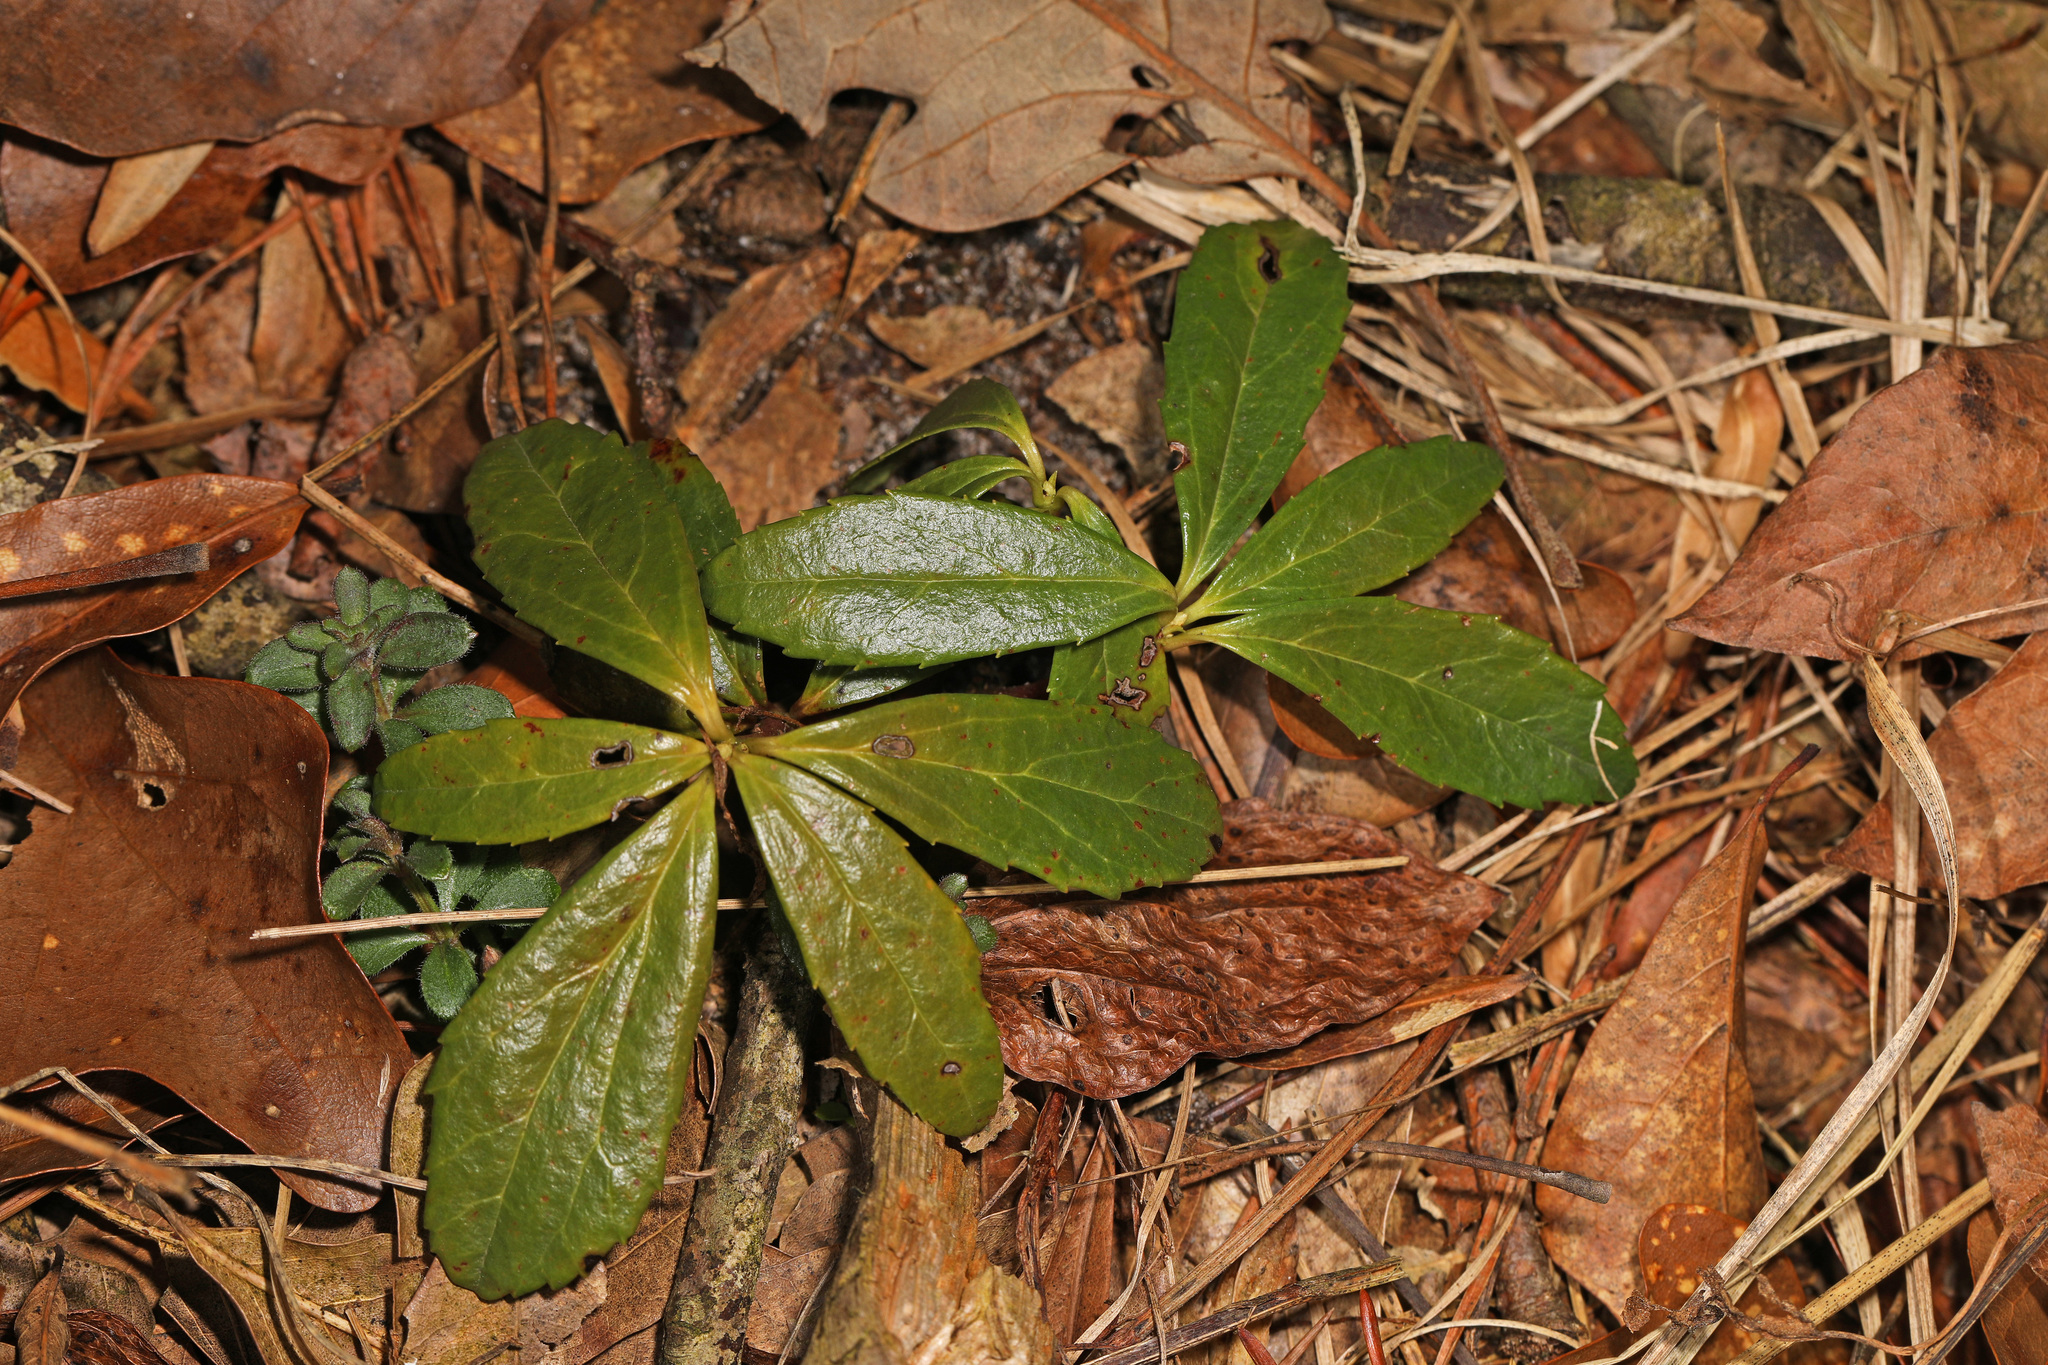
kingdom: Plantae
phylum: Tracheophyta
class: Magnoliopsida
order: Ericales
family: Ericaceae
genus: Chimaphila
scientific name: Chimaphila umbellata
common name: Pipsissewa
